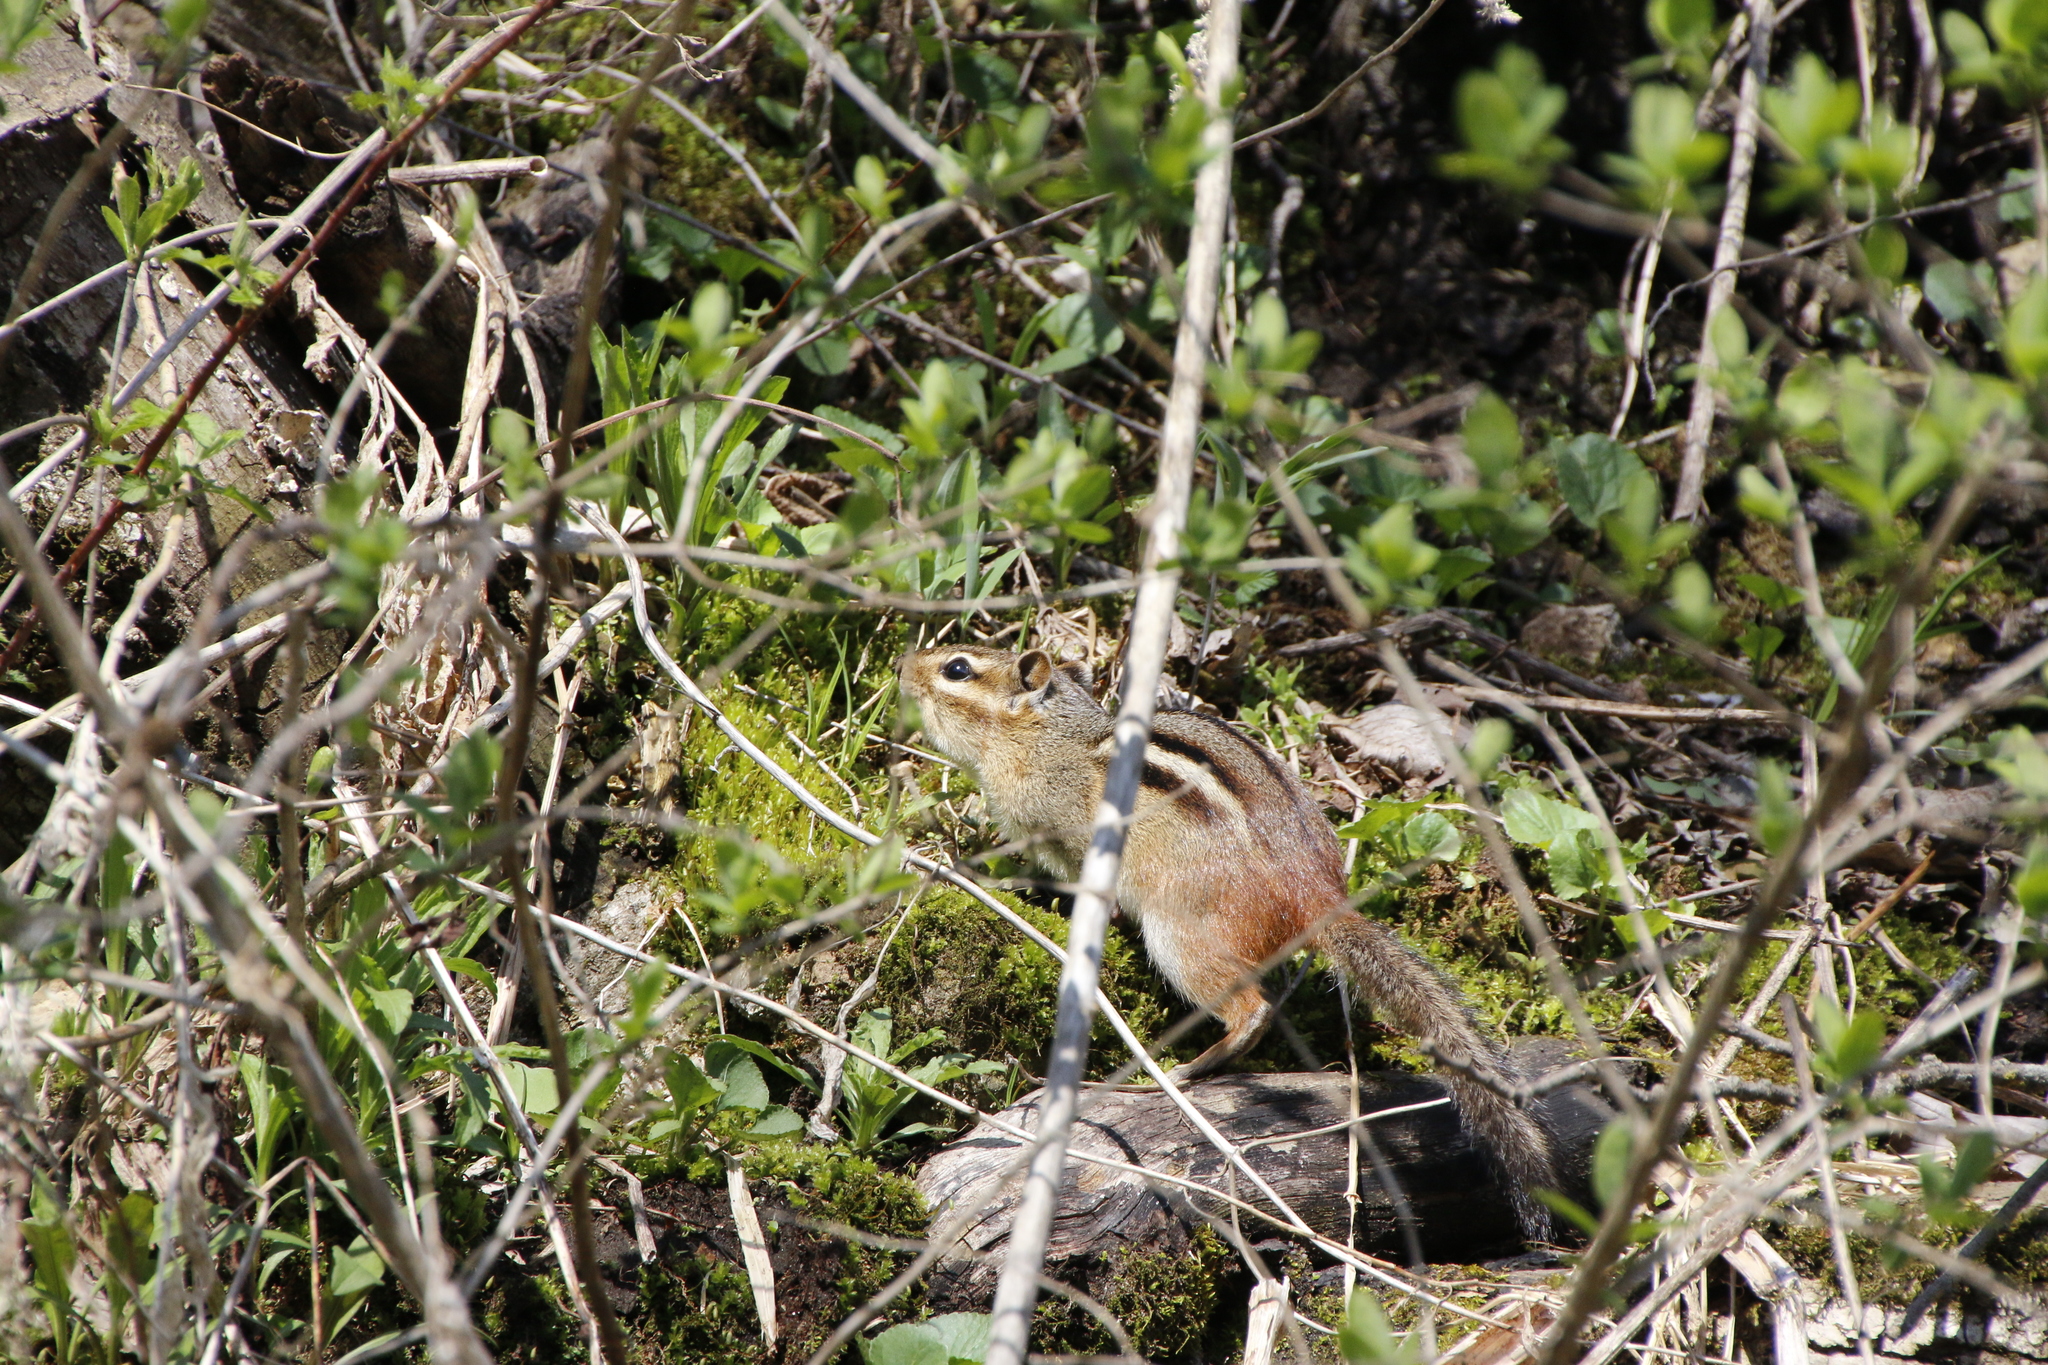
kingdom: Animalia
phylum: Chordata
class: Mammalia
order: Rodentia
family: Sciuridae
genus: Tamias
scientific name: Tamias striatus
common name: Eastern chipmunk
